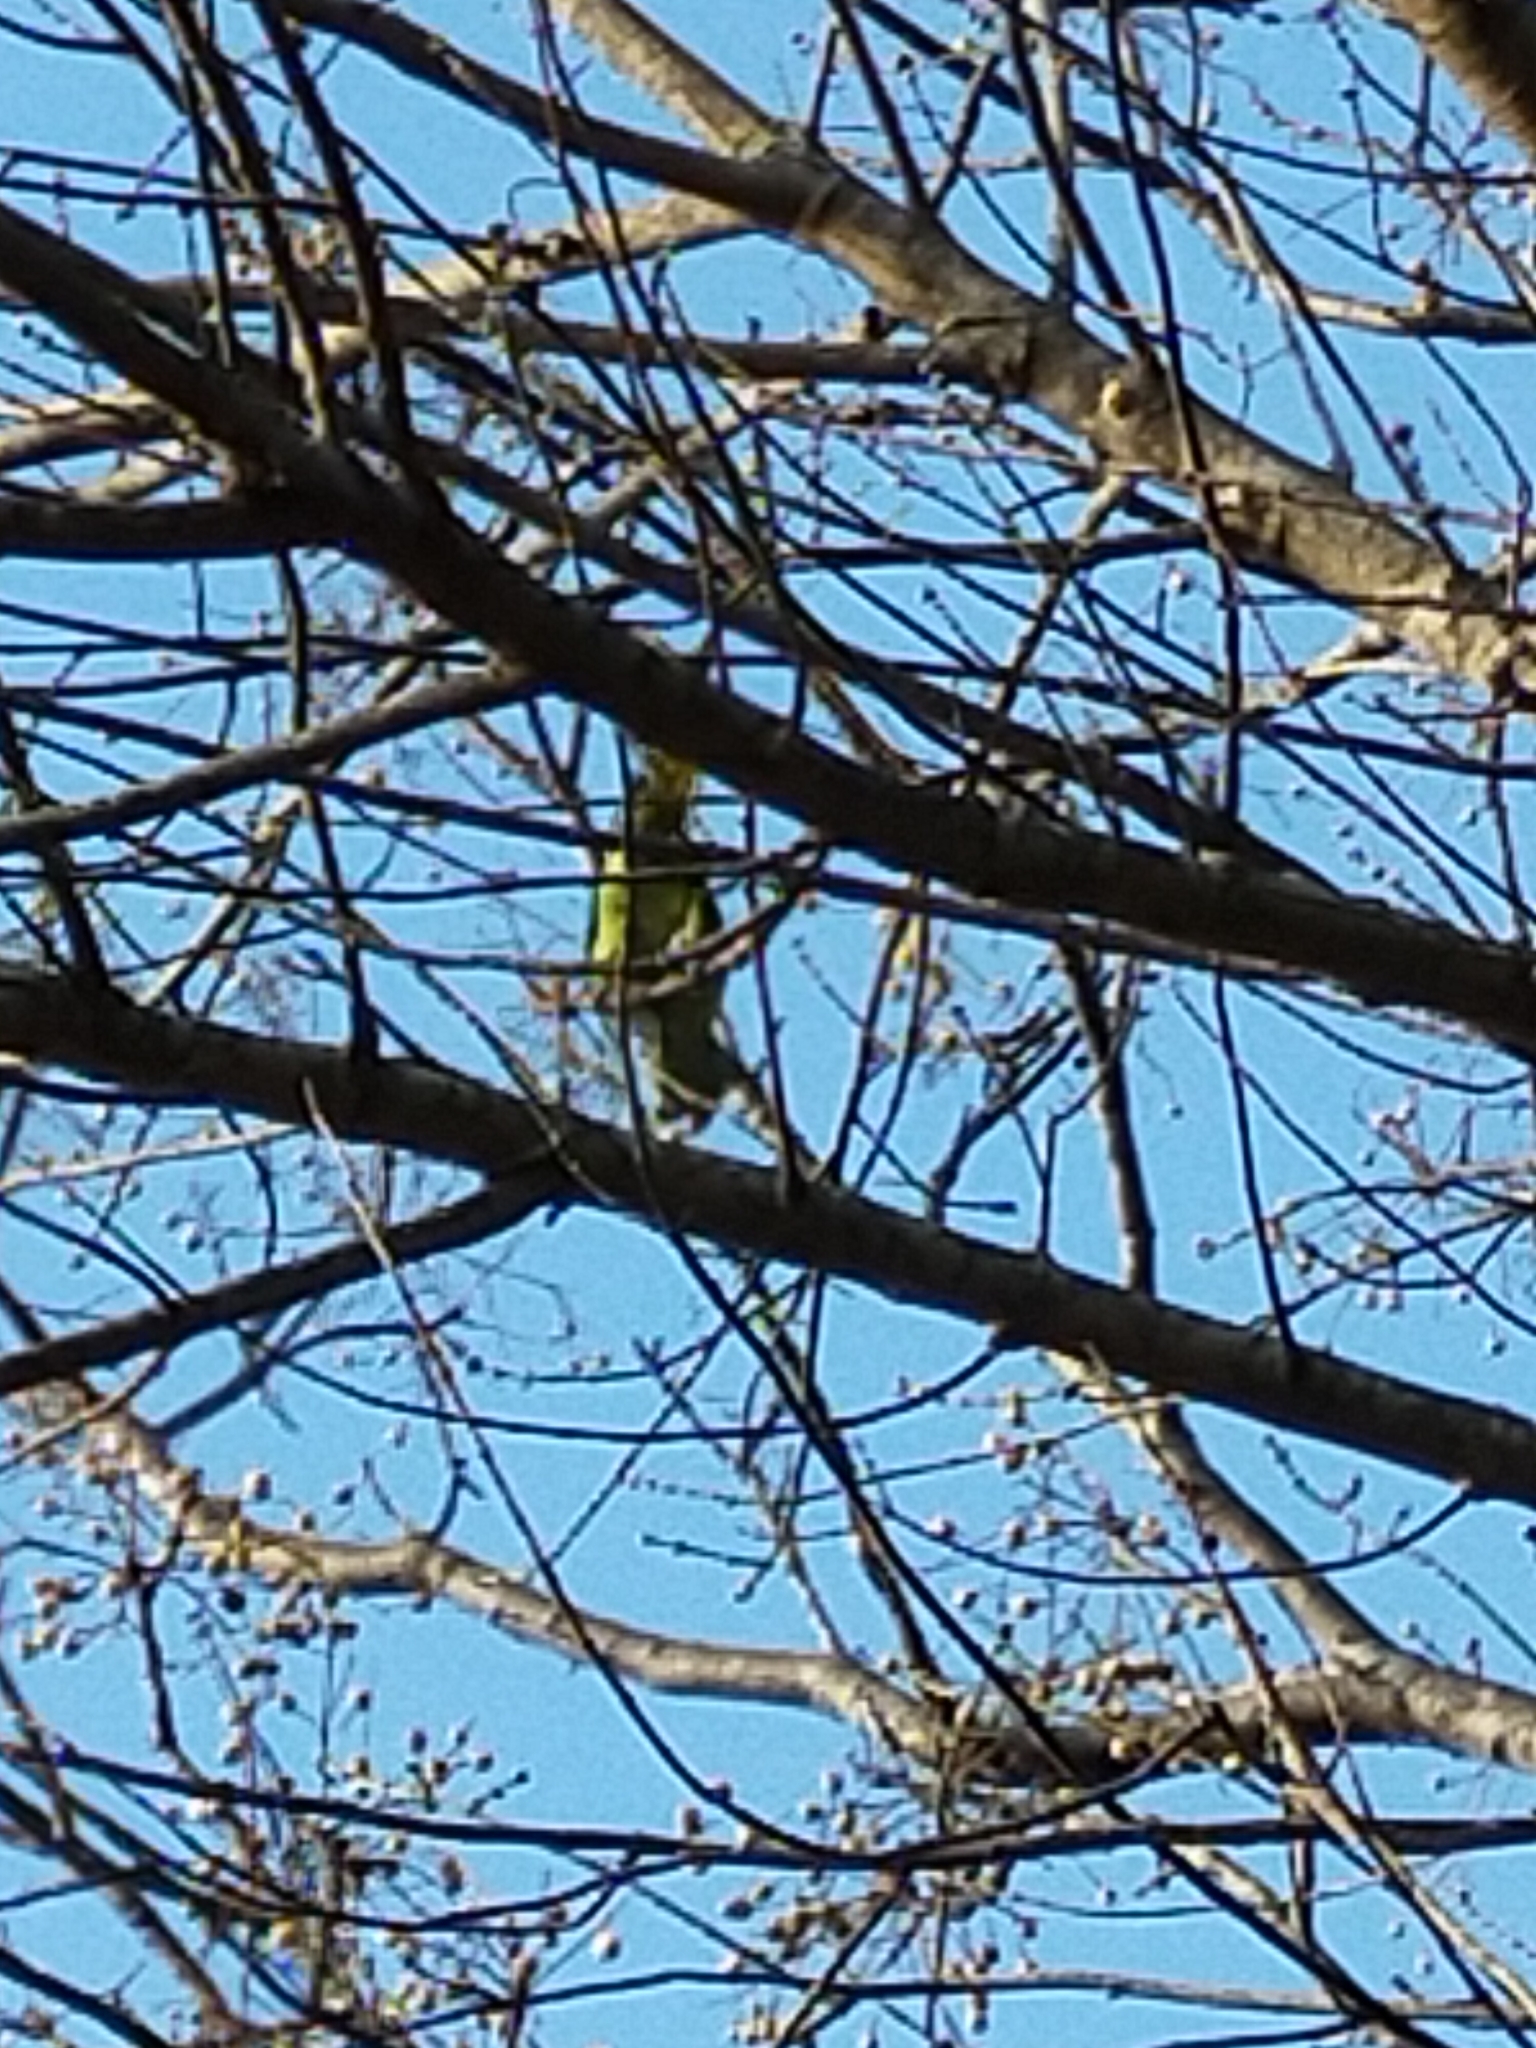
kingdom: Animalia
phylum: Chordata
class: Aves
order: Psittaciformes
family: Psittacidae
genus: Psittacula
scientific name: Psittacula eupatria
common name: Alexandrine parakeet
